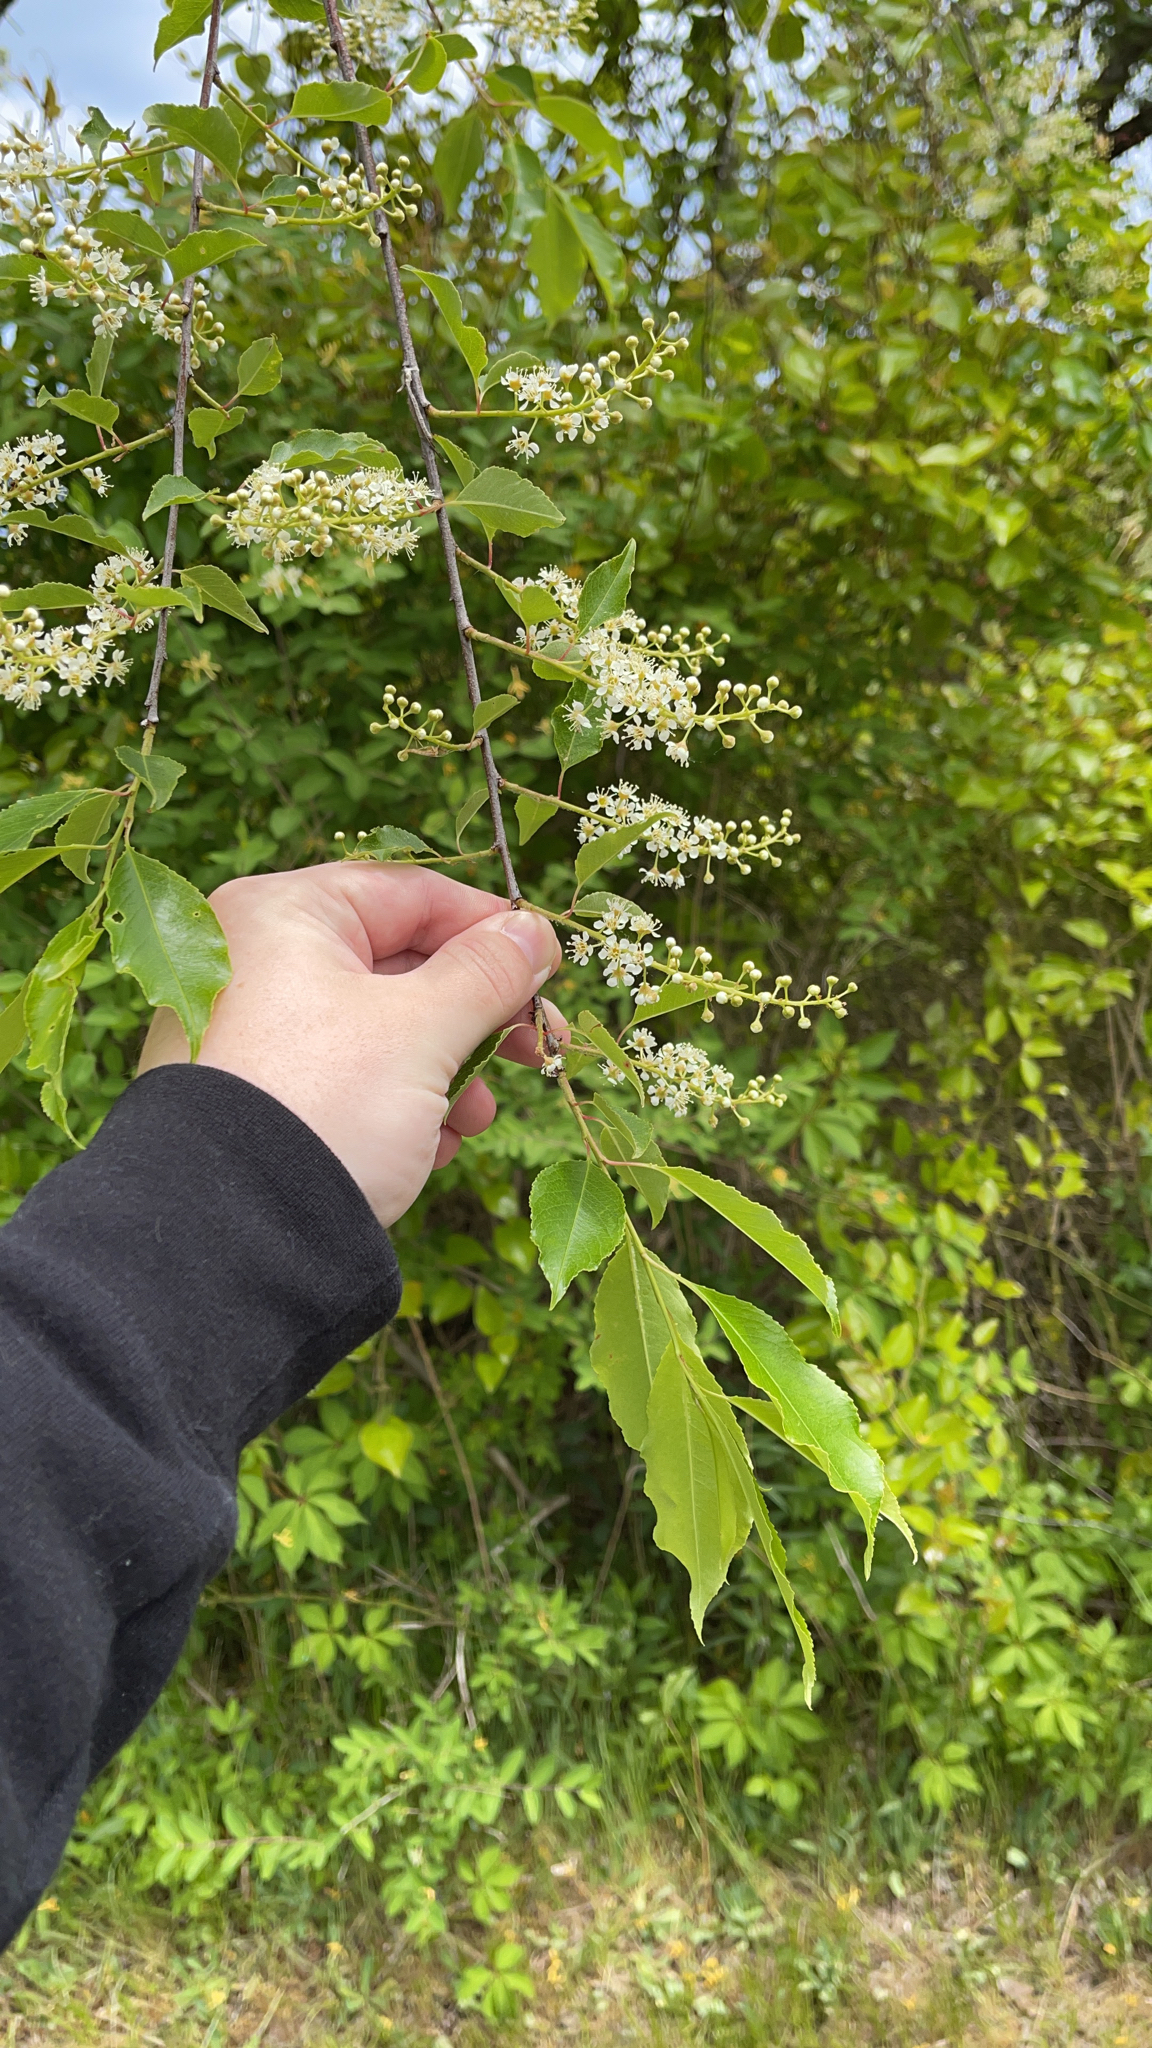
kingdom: Plantae
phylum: Tracheophyta
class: Magnoliopsida
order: Rosales
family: Rosaceae
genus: Prunus
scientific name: Prunus serotina
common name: Black cherry
